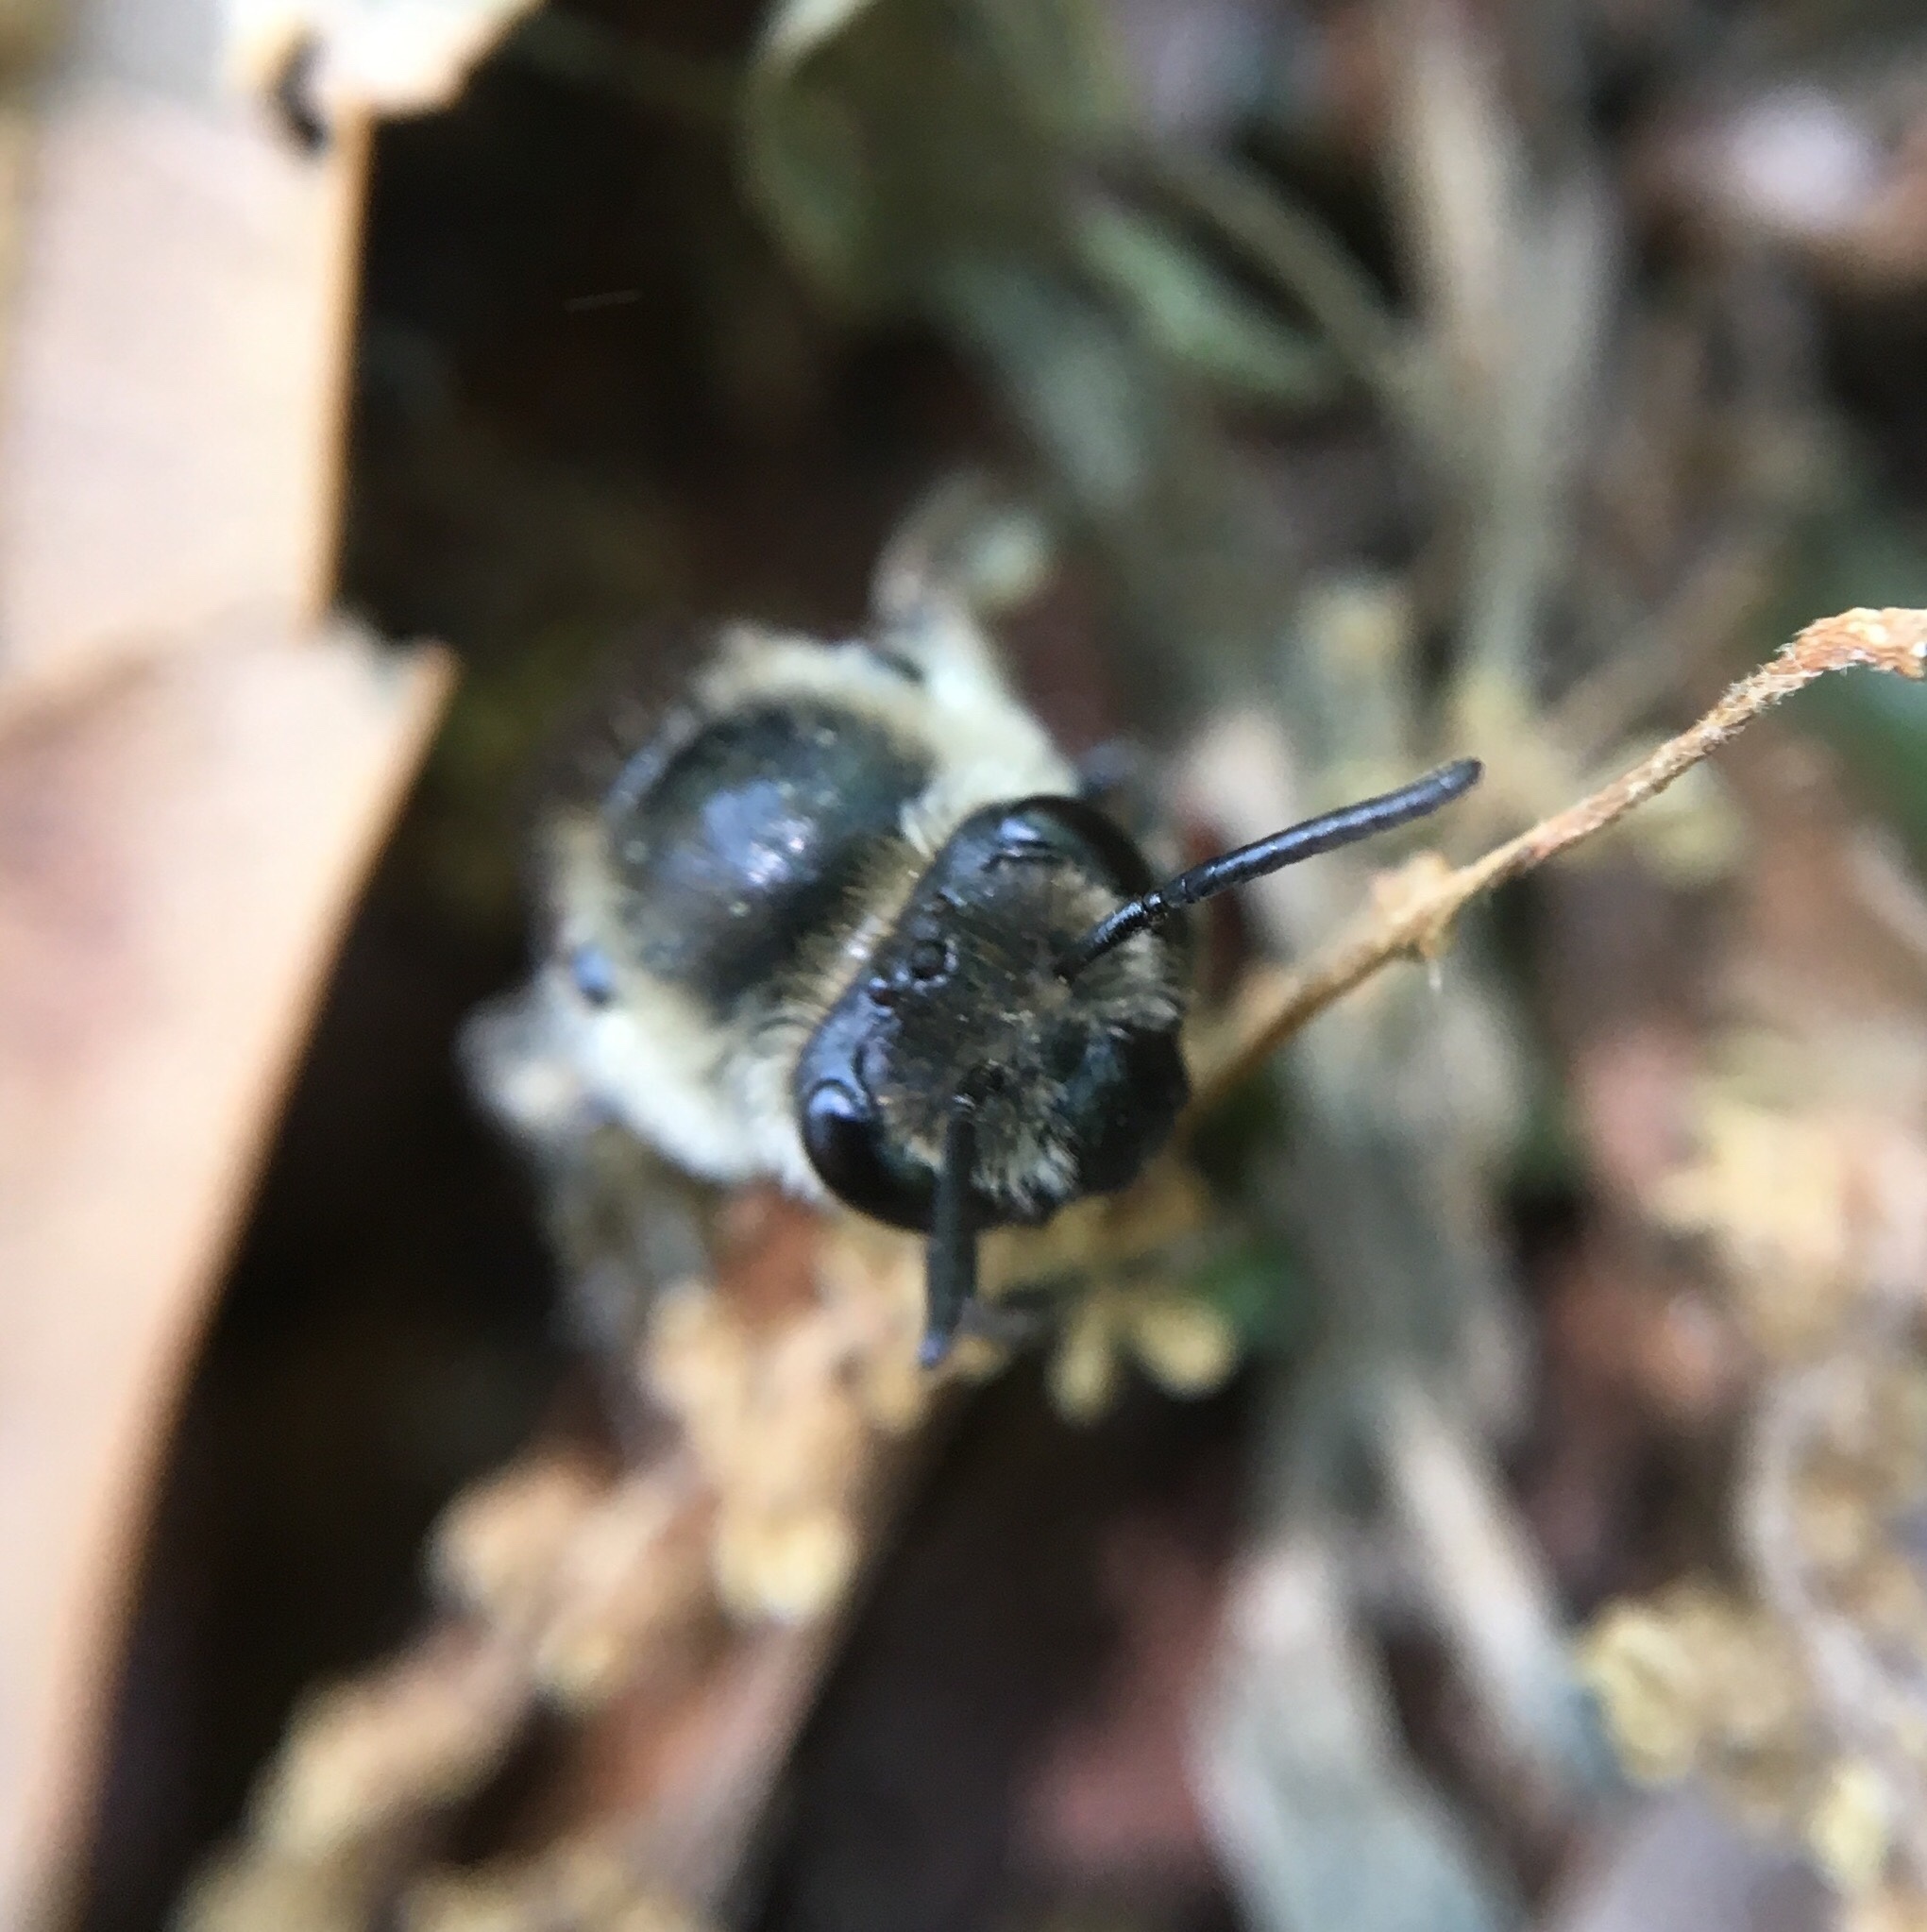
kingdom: Animalia
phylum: Arthropoda
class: Insecta
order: Hymenoptera
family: Colletidae
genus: Colletes
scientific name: Colletes inaequalis
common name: Unequal cellophane bee
